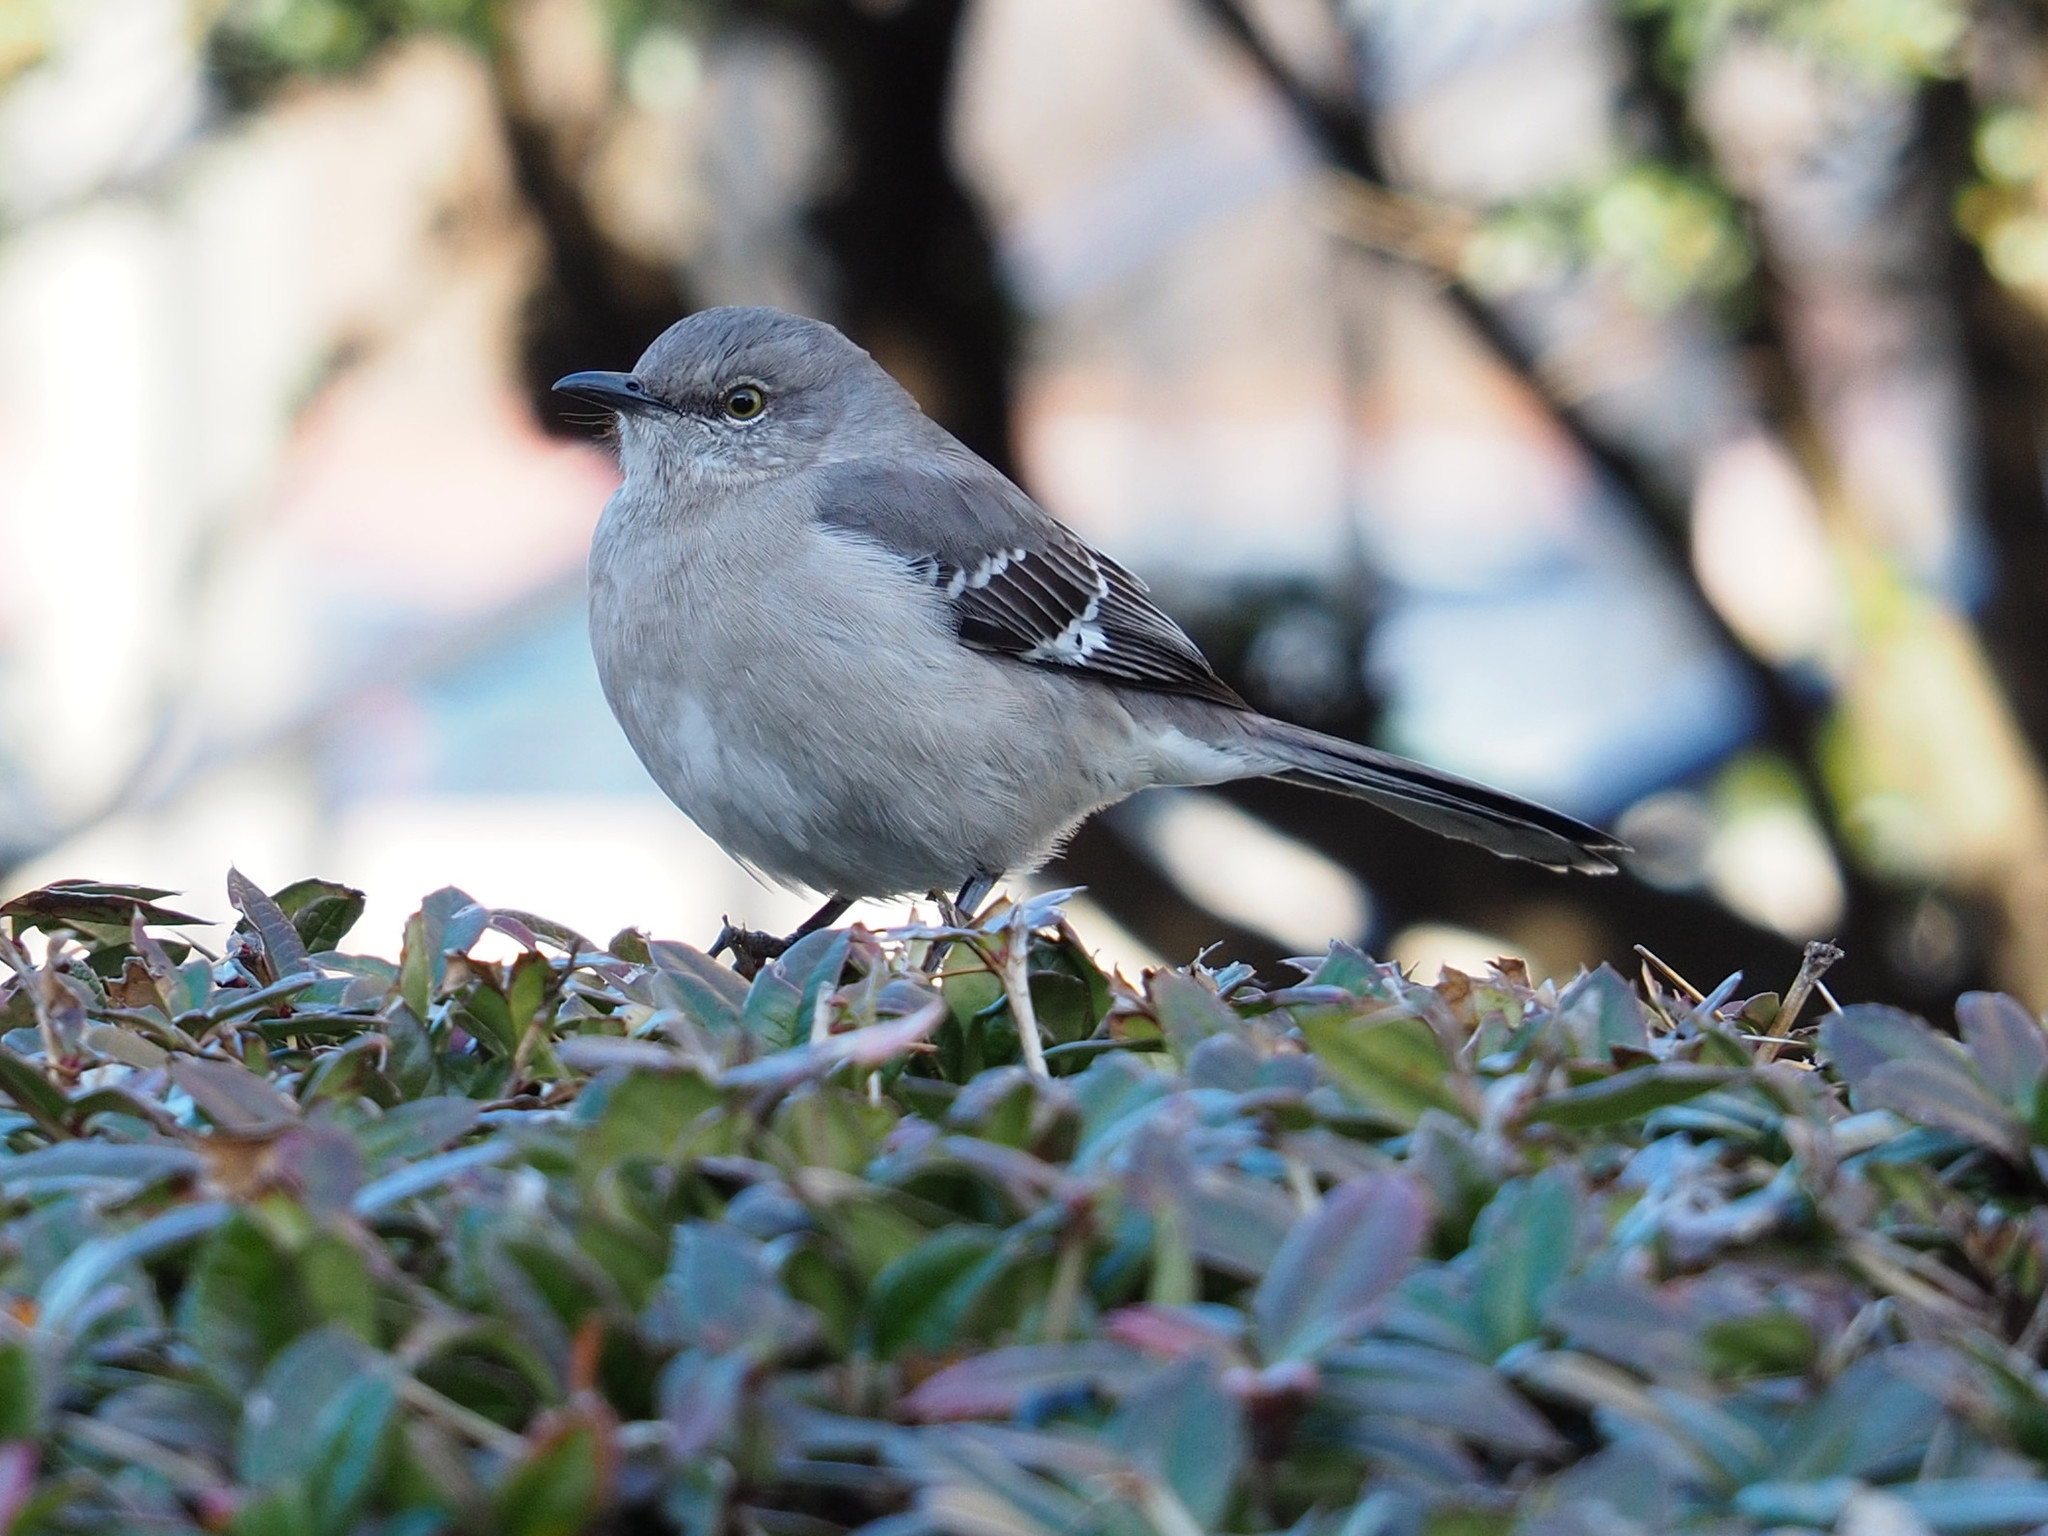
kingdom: Animalia
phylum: Chordata
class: Aves
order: Passeriformes
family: Mimidae
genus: Mimus
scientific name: Mimus polyglottos
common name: Northern mockingbird
